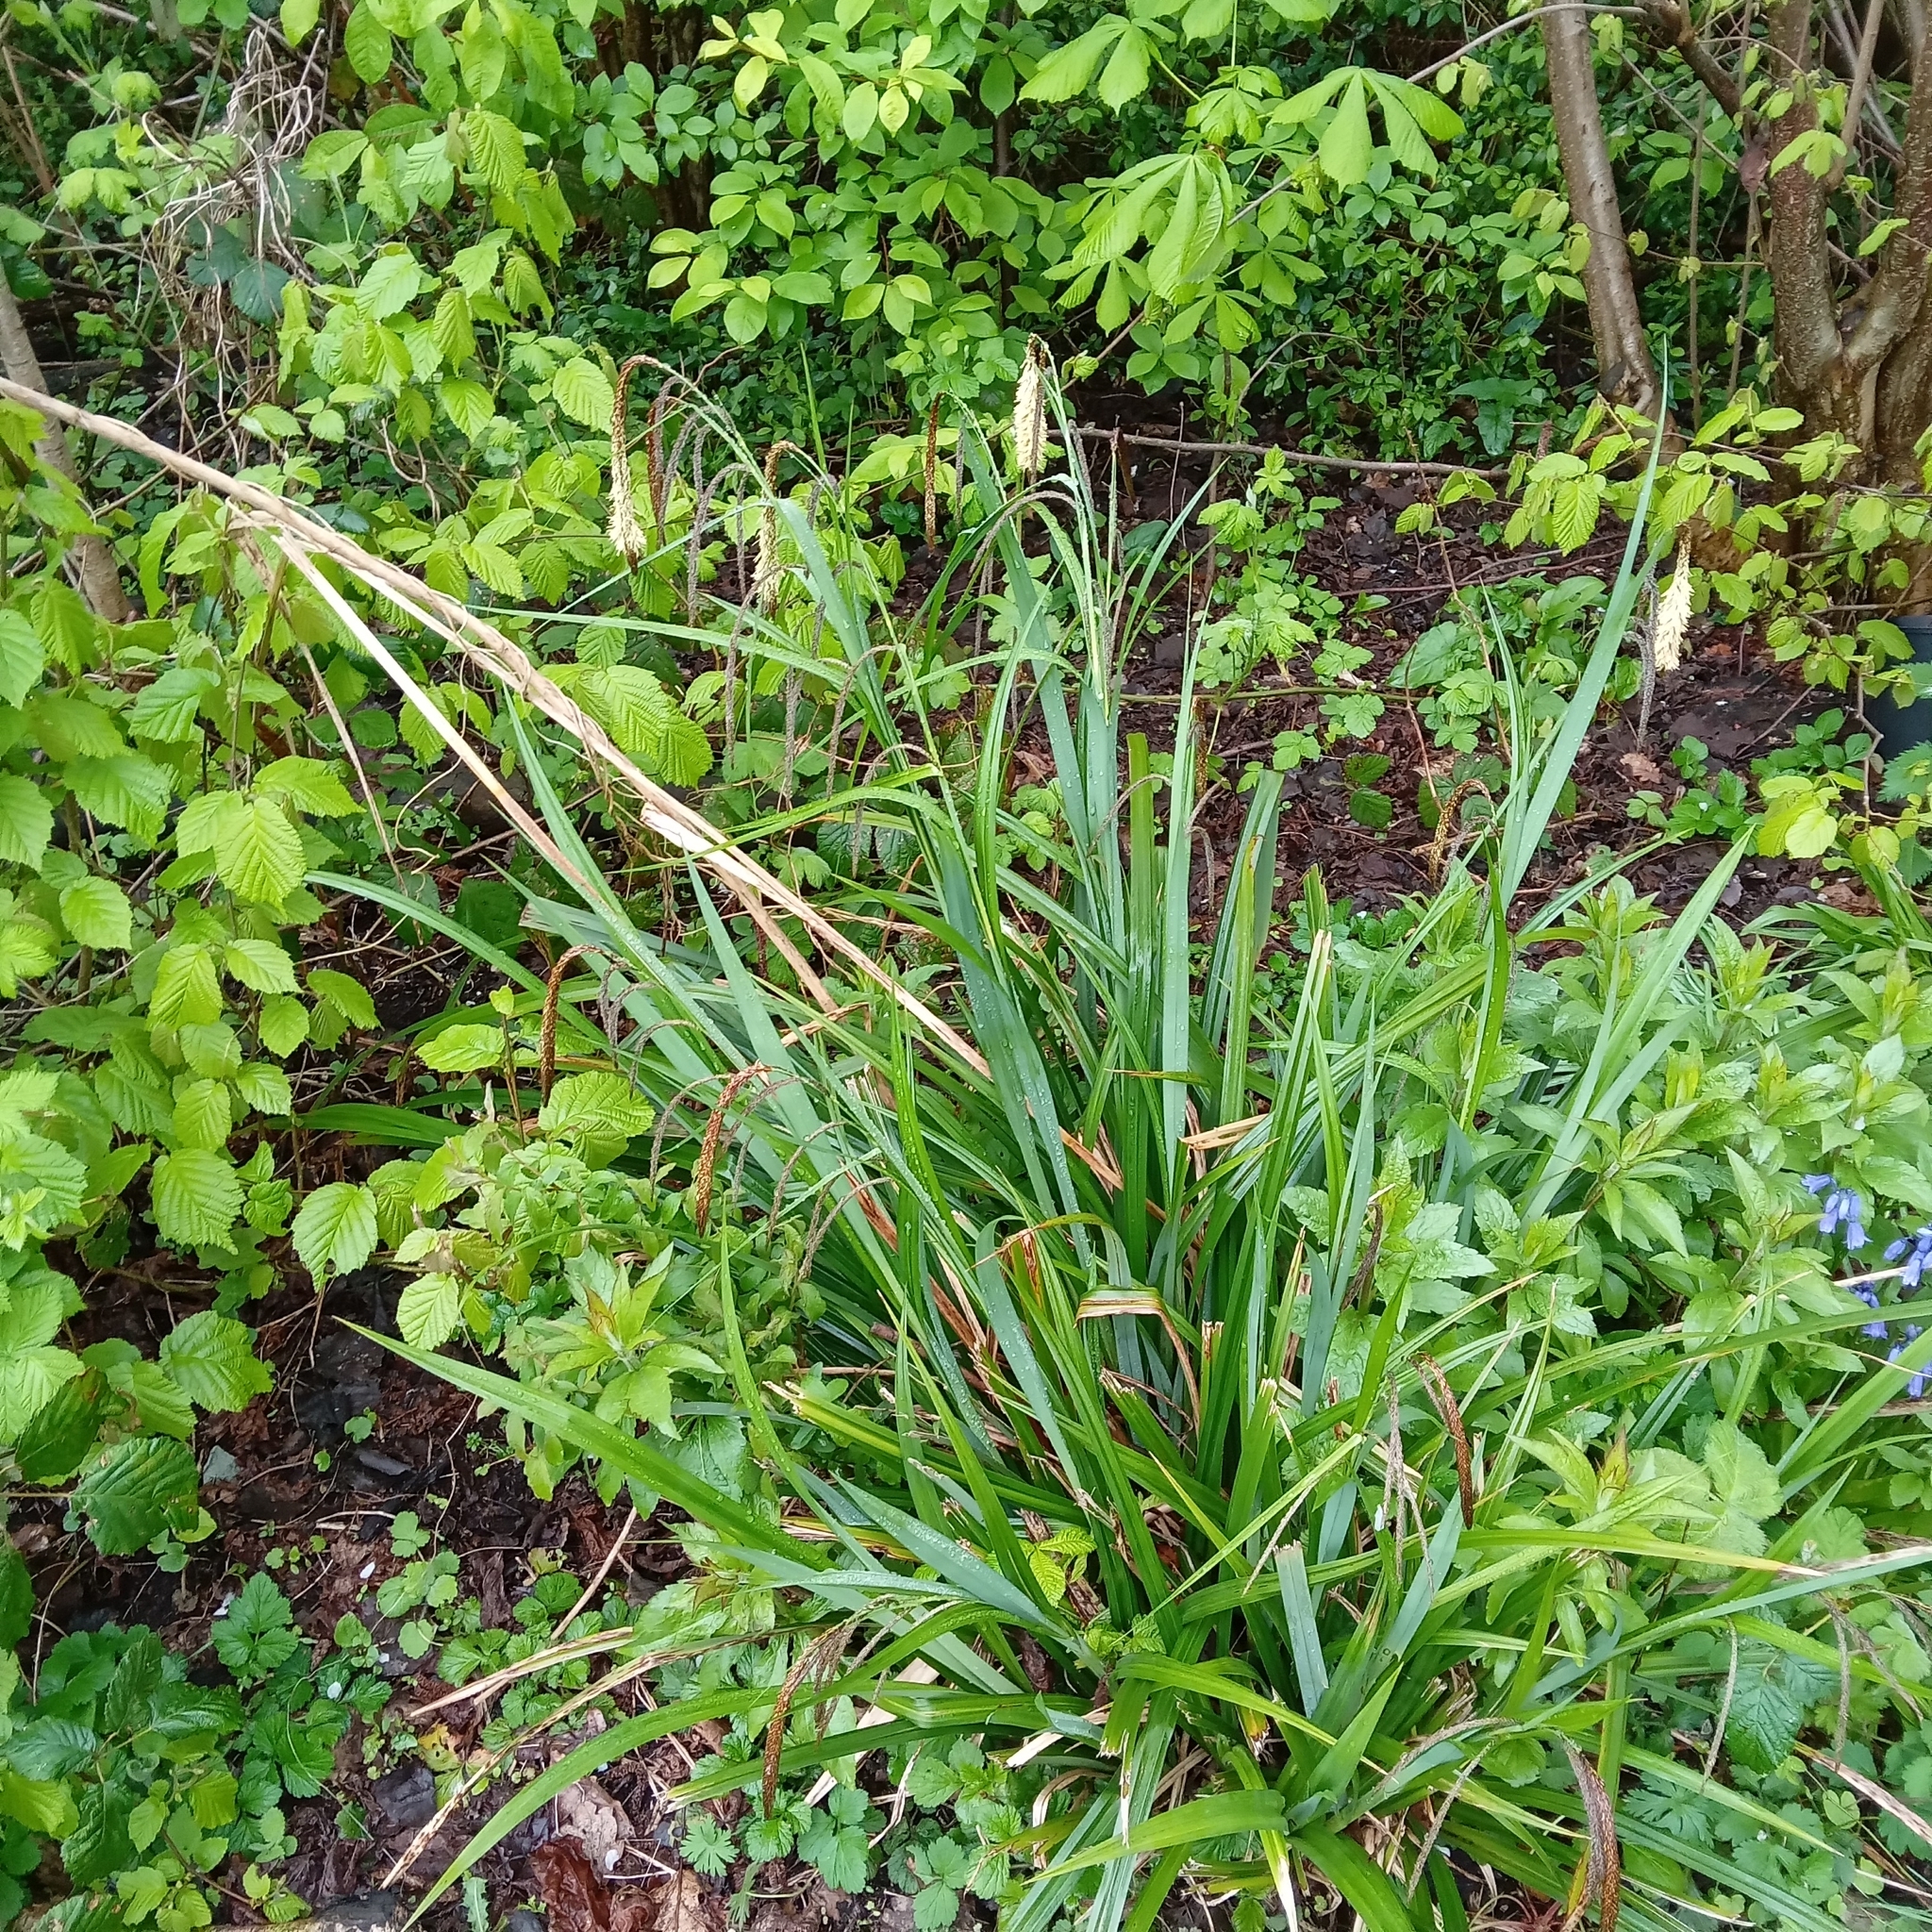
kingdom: Plantae
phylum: Tracheophyta
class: Liliopsida
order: Poales
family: Cyperaceae
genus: Carex
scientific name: Carex pendula
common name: Pendulous sedge
